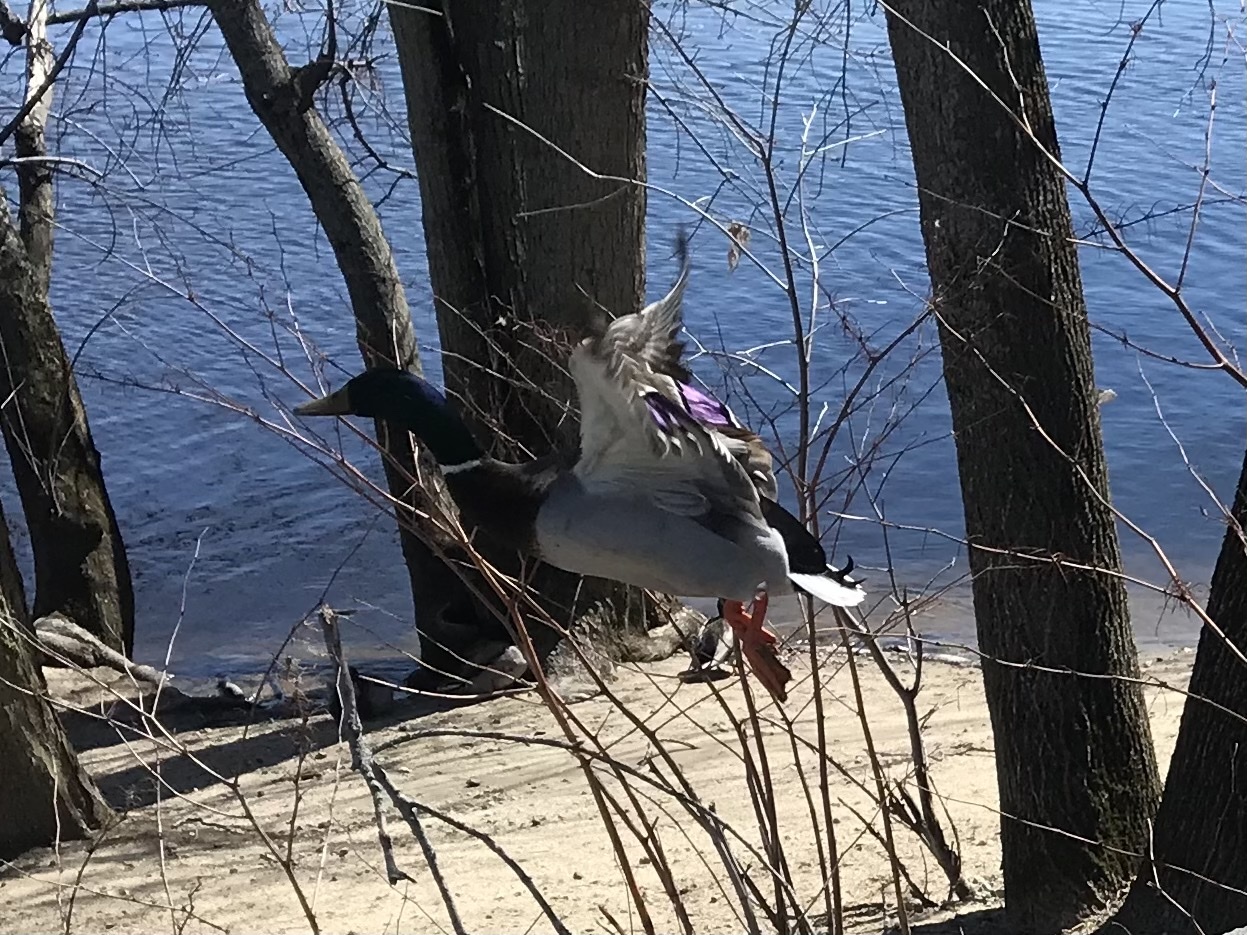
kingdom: Animalia
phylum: Chordata
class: Aves
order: Anseriformes
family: Anatidae
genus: Anas
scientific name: Anas platyrhynchos
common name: Mallard
